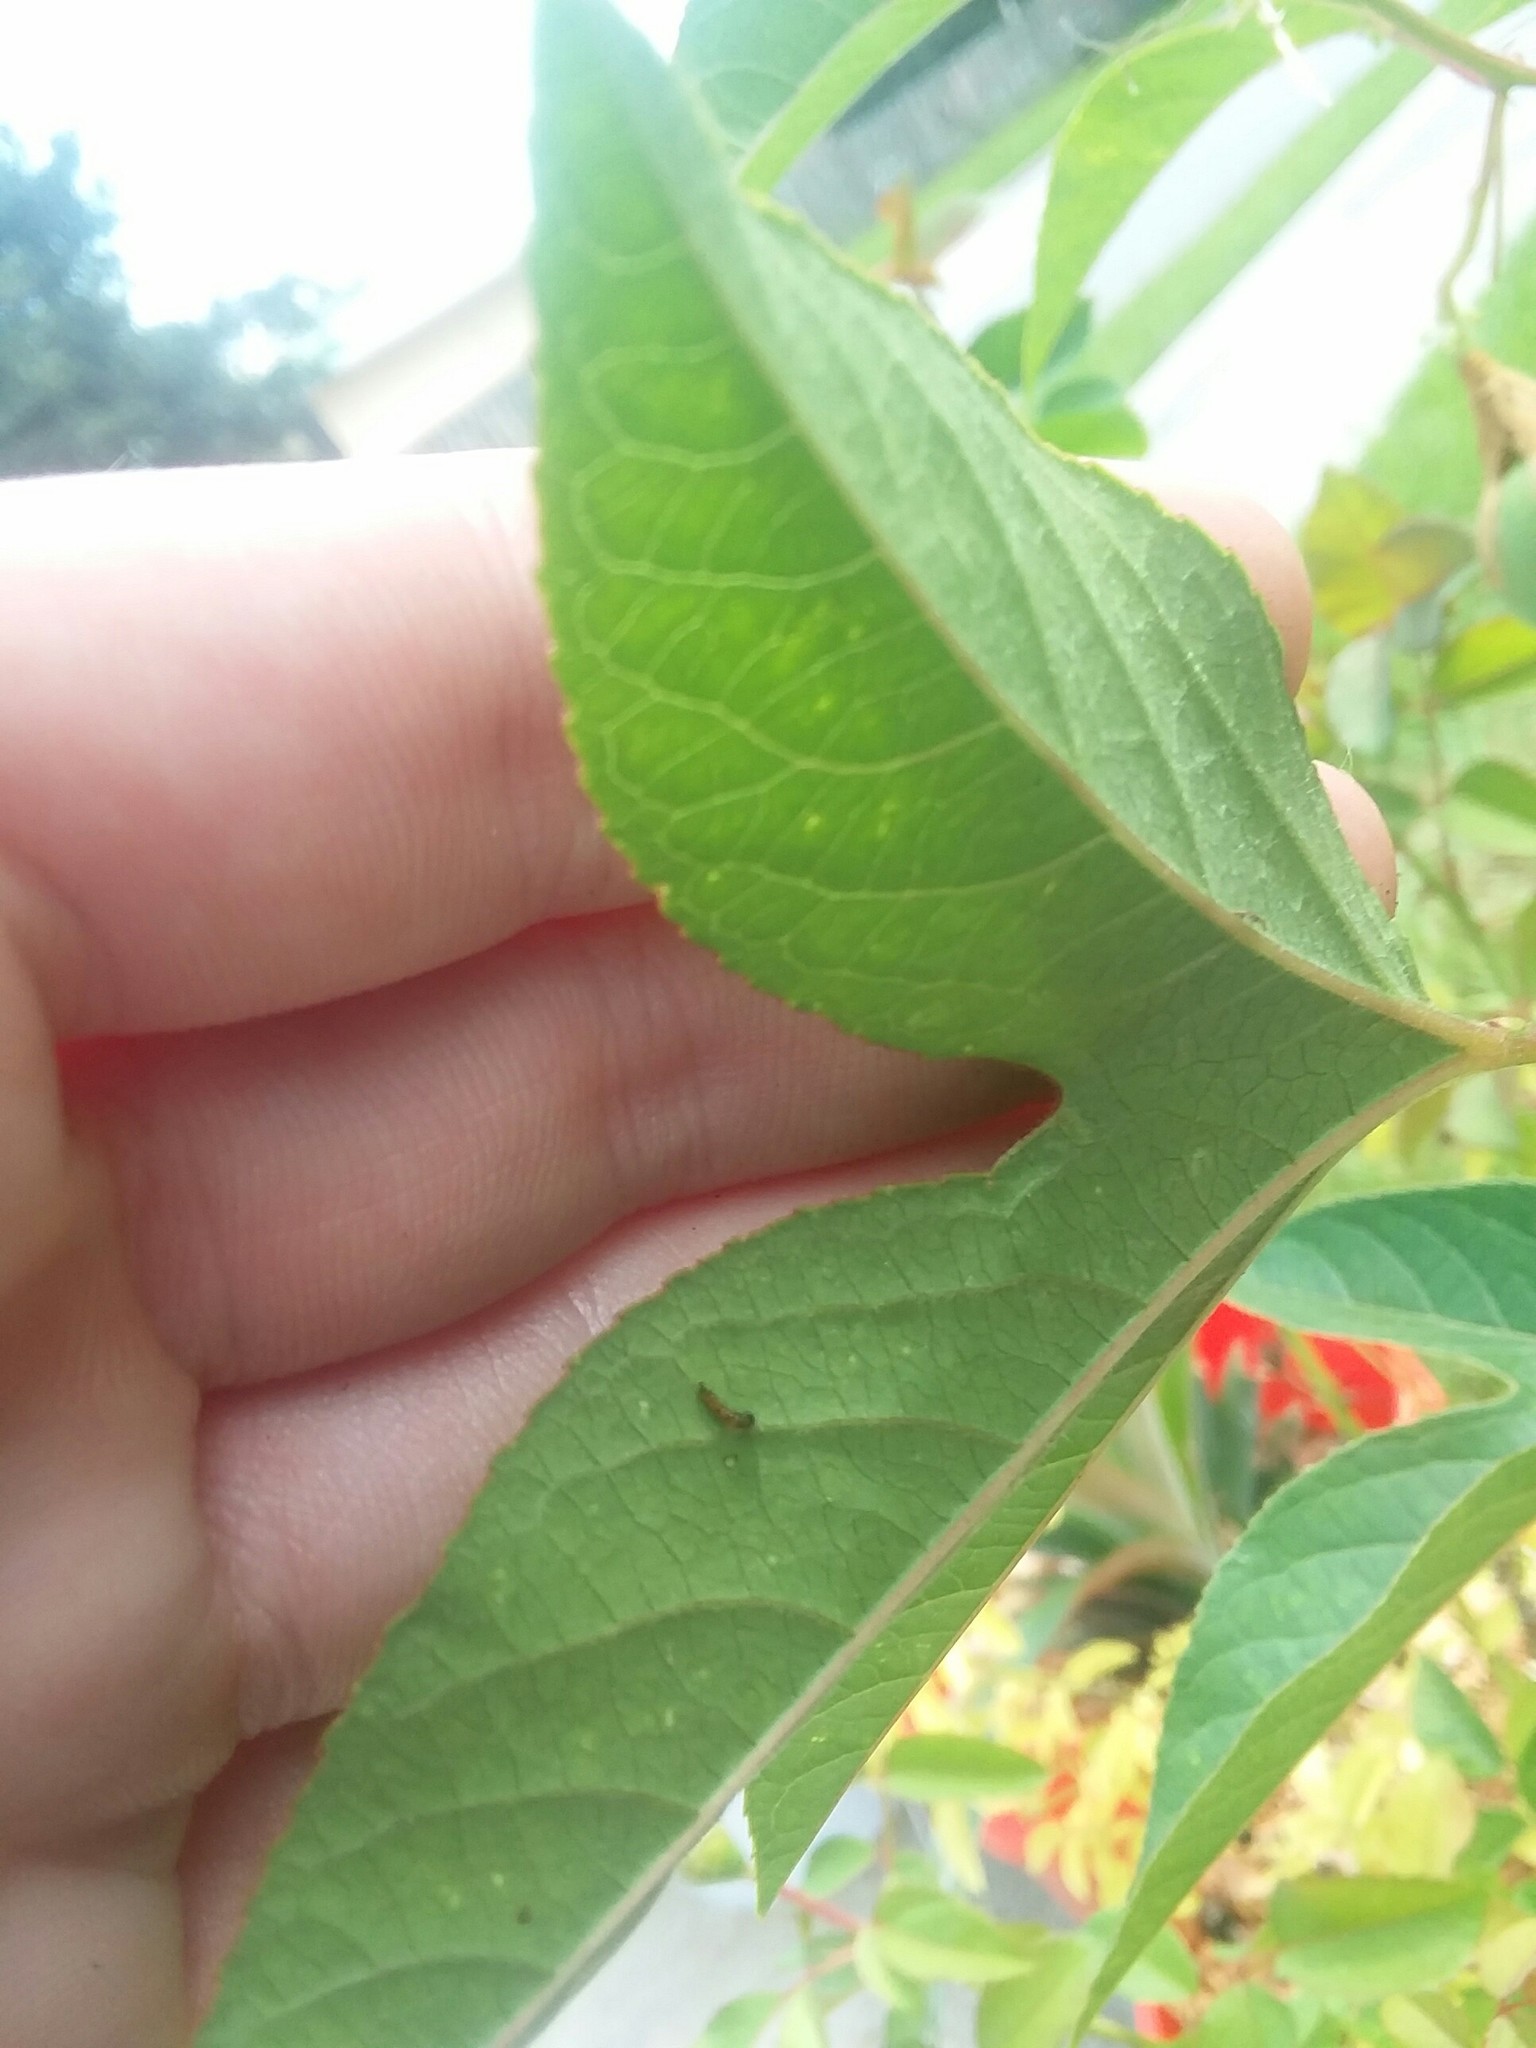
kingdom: Animalia
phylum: Arthropoda
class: Insecta
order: Lepidoptera
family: Nymphalidae
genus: Dione
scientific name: Dione vanillae
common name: Gulf fritillary
